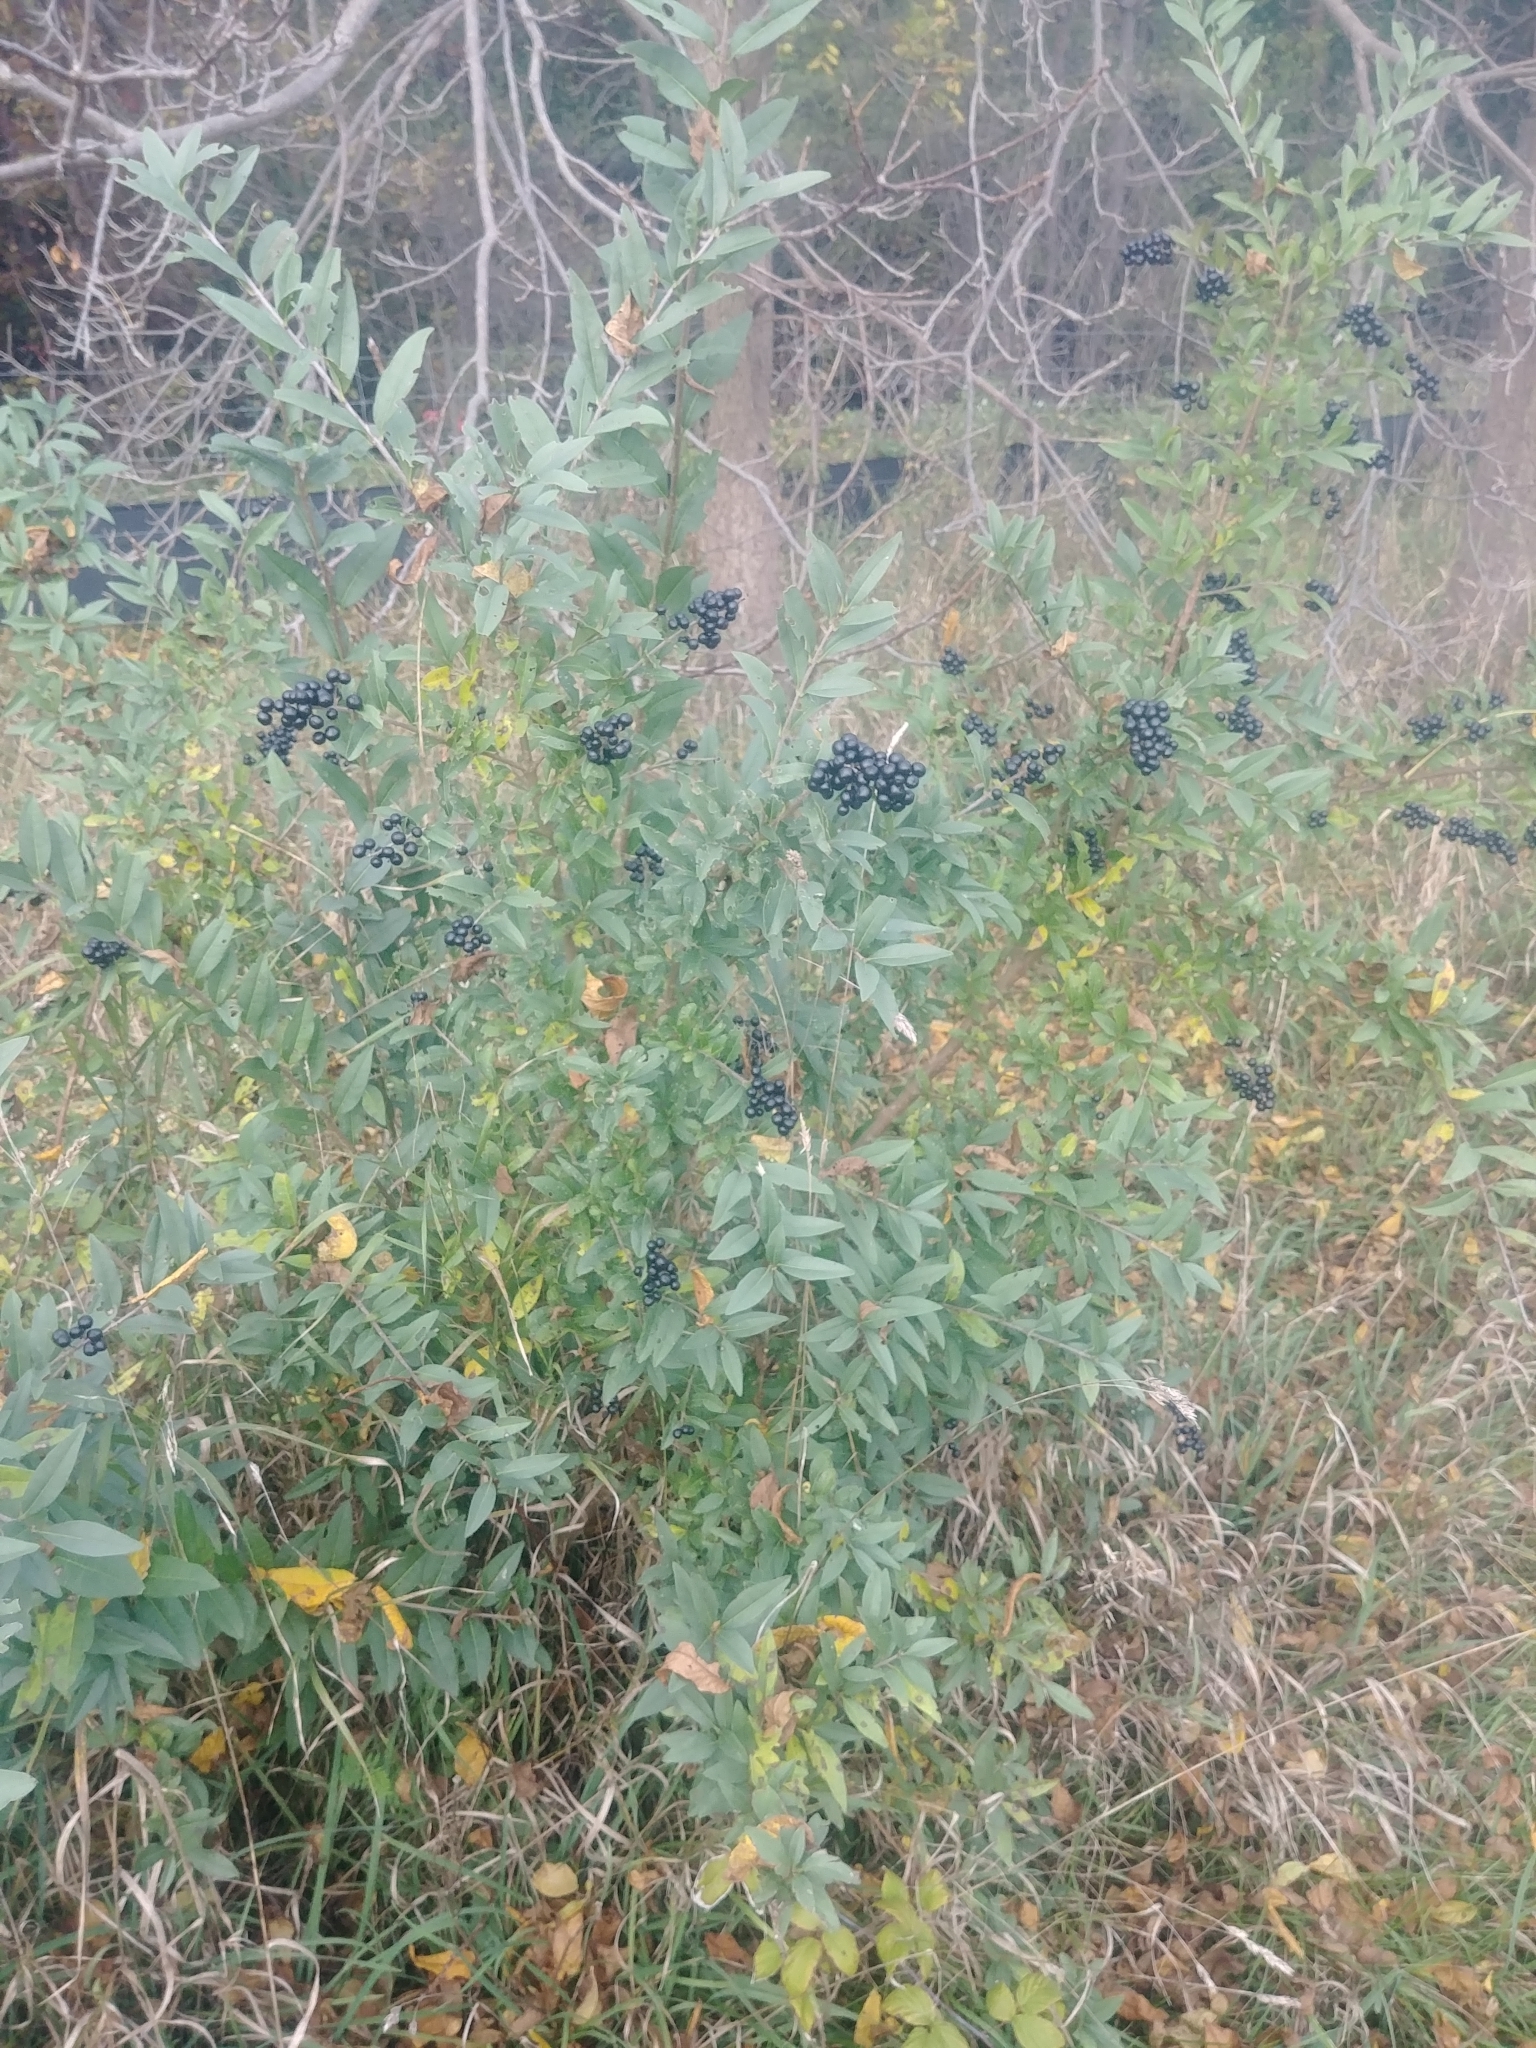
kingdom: Plantae
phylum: Tracheophyta
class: Magnoliopsida
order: Lamiales
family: Oleaceae
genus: Ligustrum
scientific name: Ligustrum vulgare
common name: Wild privet
